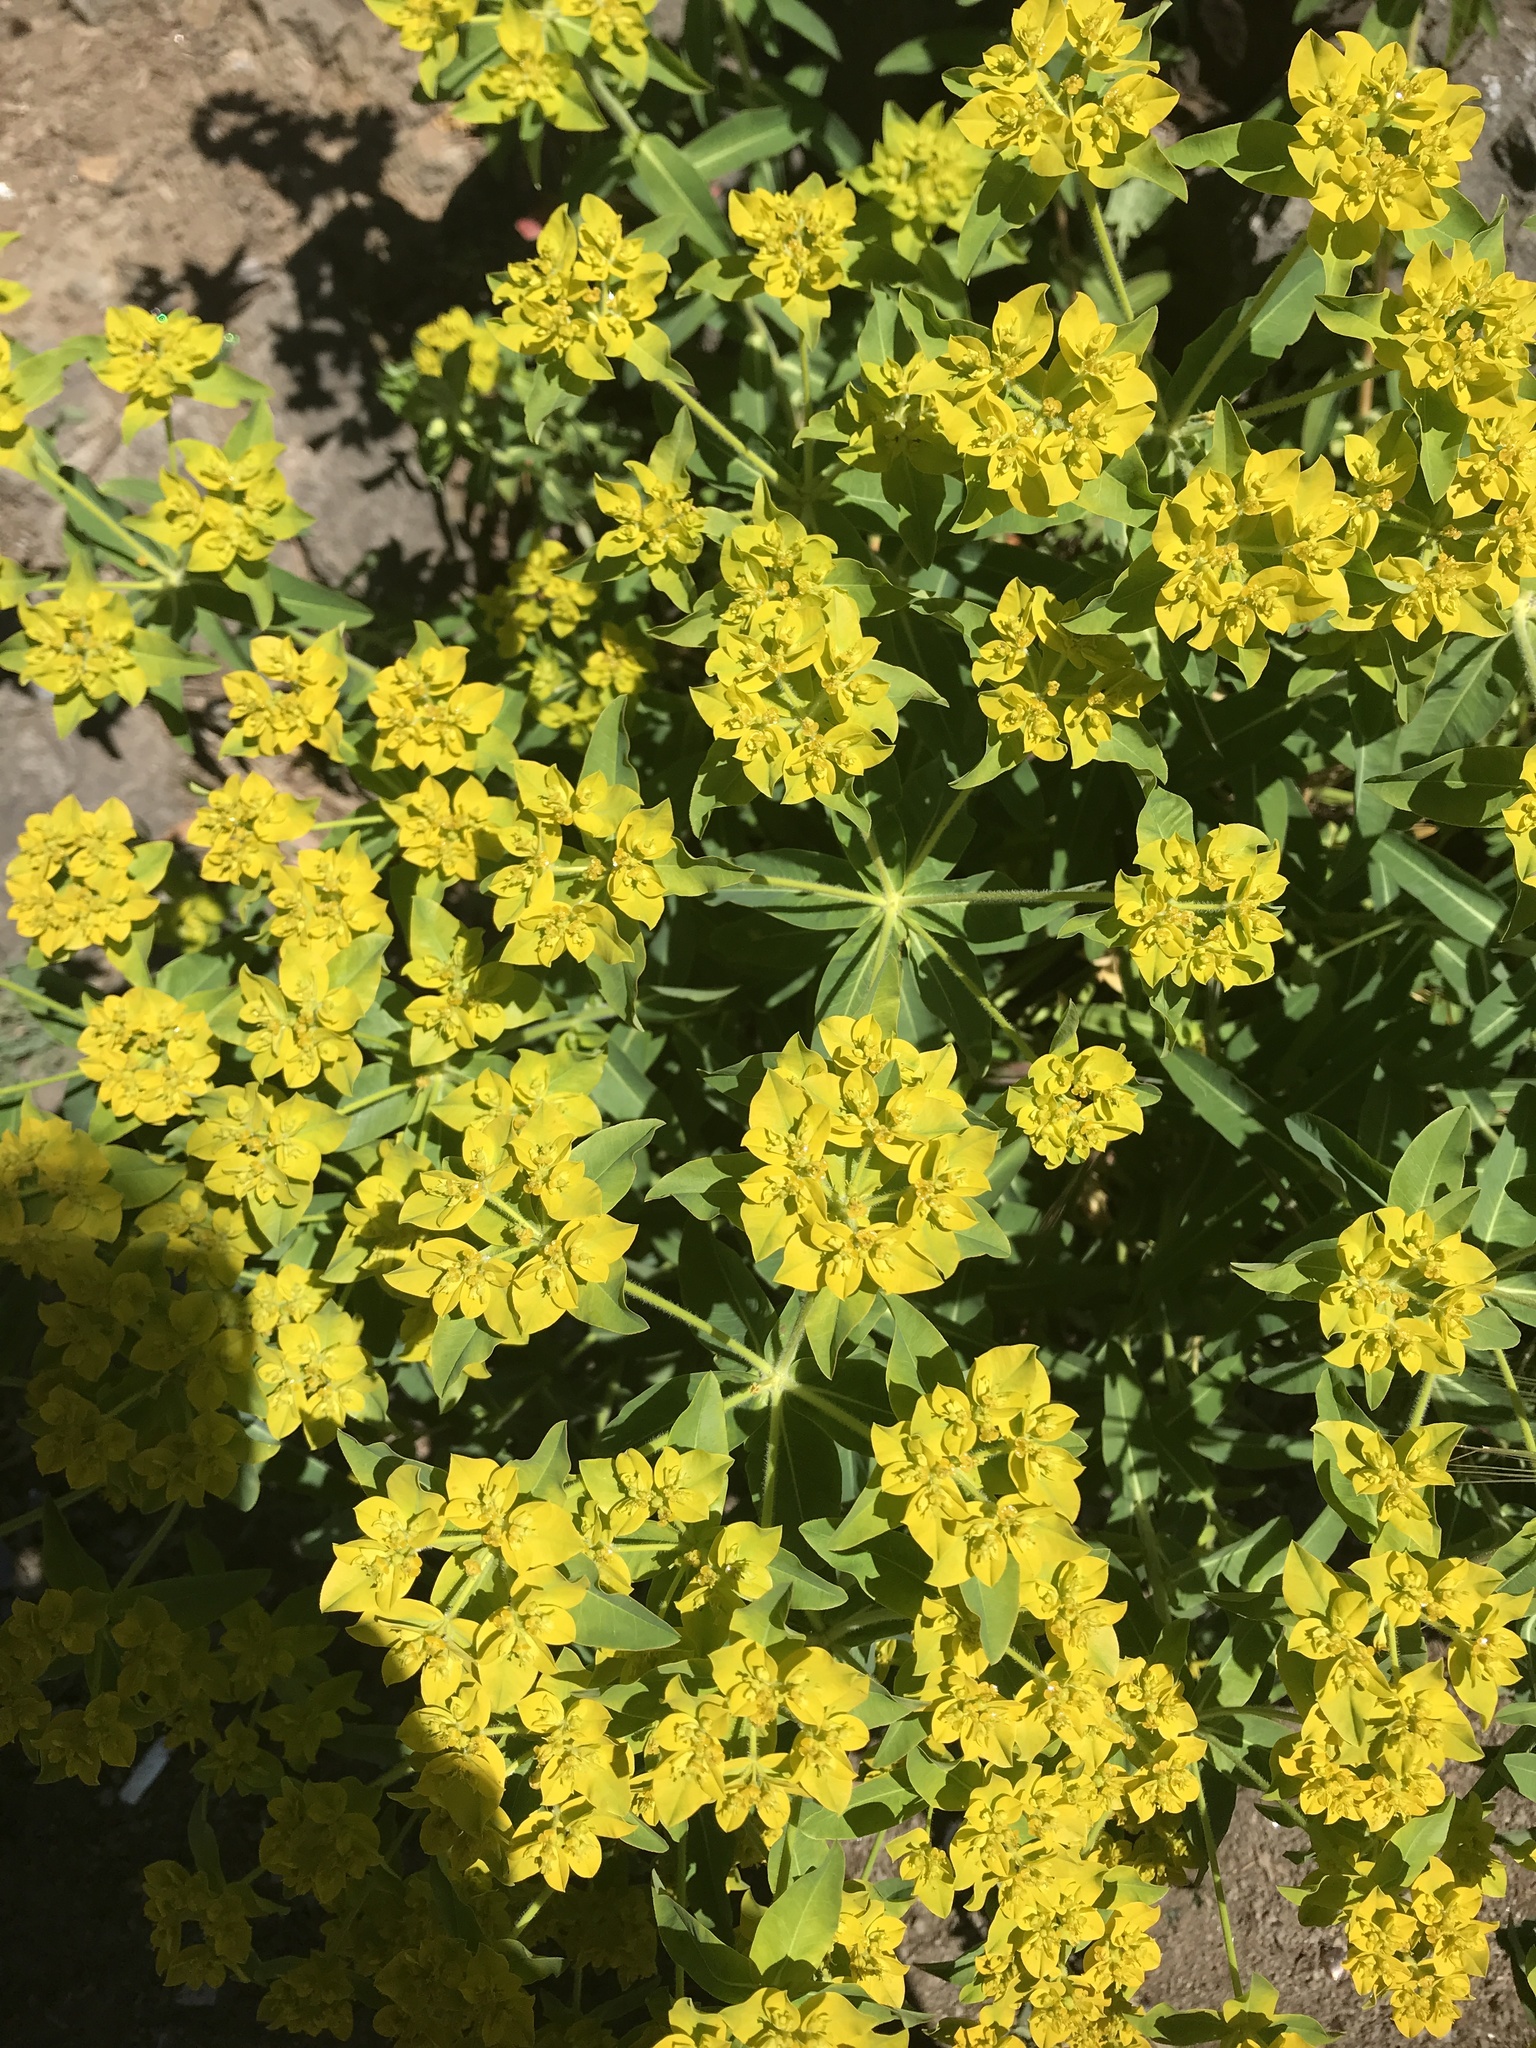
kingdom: Plantae
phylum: Tracheophyta
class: Magnoliopsida
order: Malpighiales
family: Euphorbiaceae
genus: Euphorbia
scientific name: Euphorbia oblongata
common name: Balkan spurge
